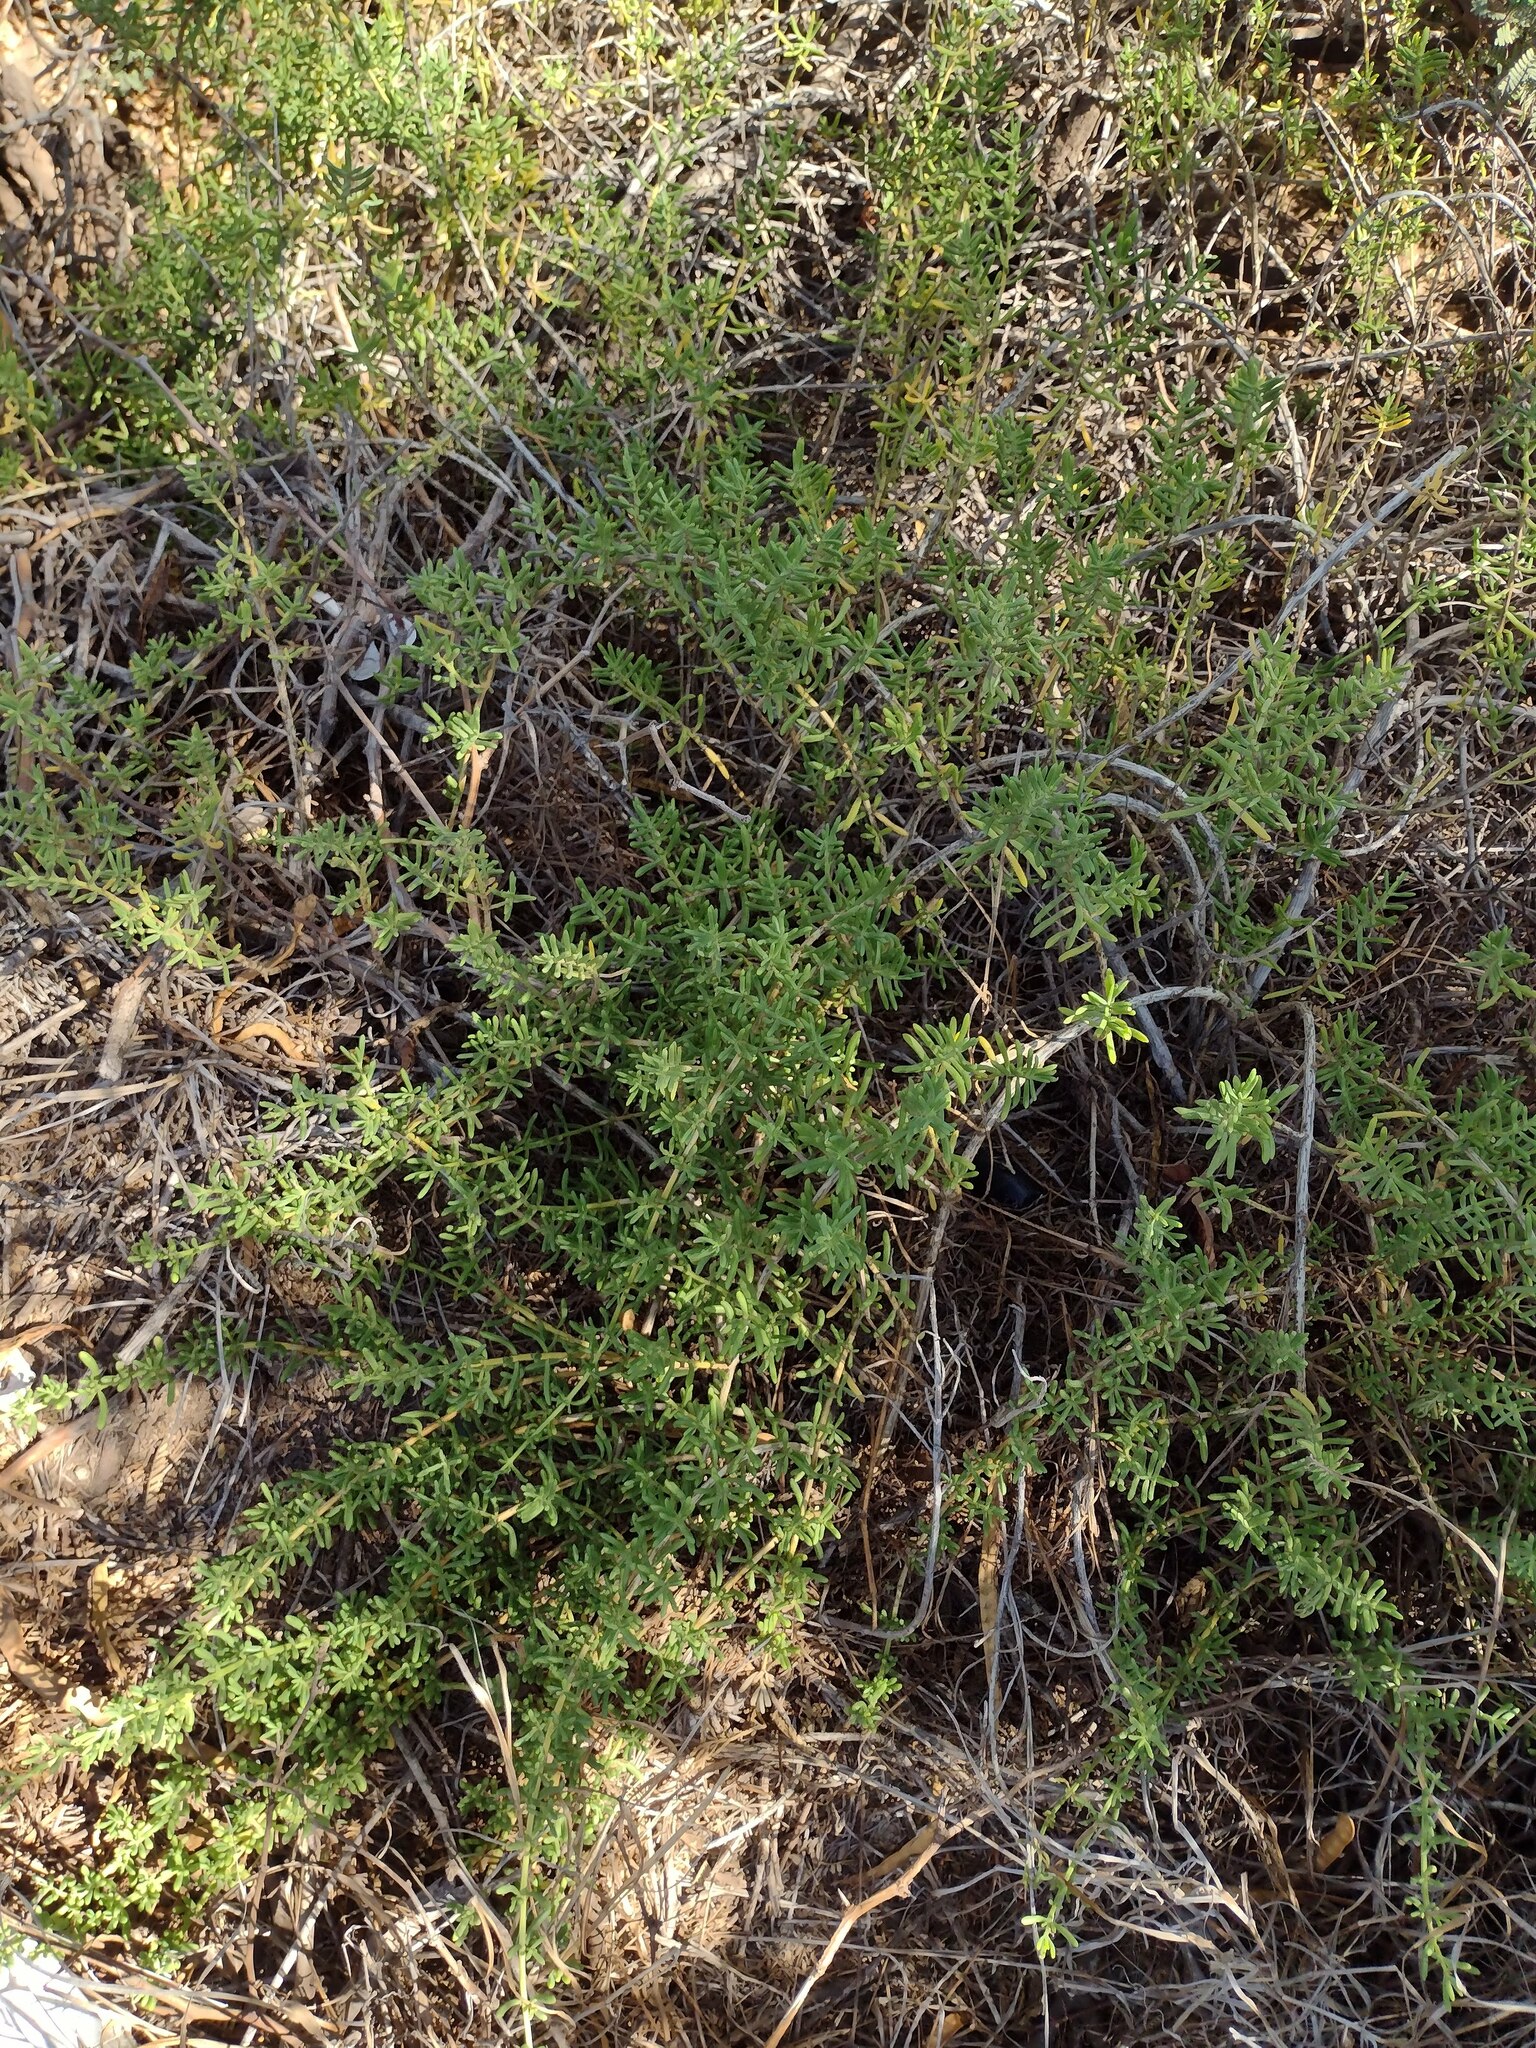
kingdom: Plantae
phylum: Tracheophyta
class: Magnoliopsida
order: Brassicales
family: Bataceae
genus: Batis
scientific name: Batis maritima
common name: Turtleweed
